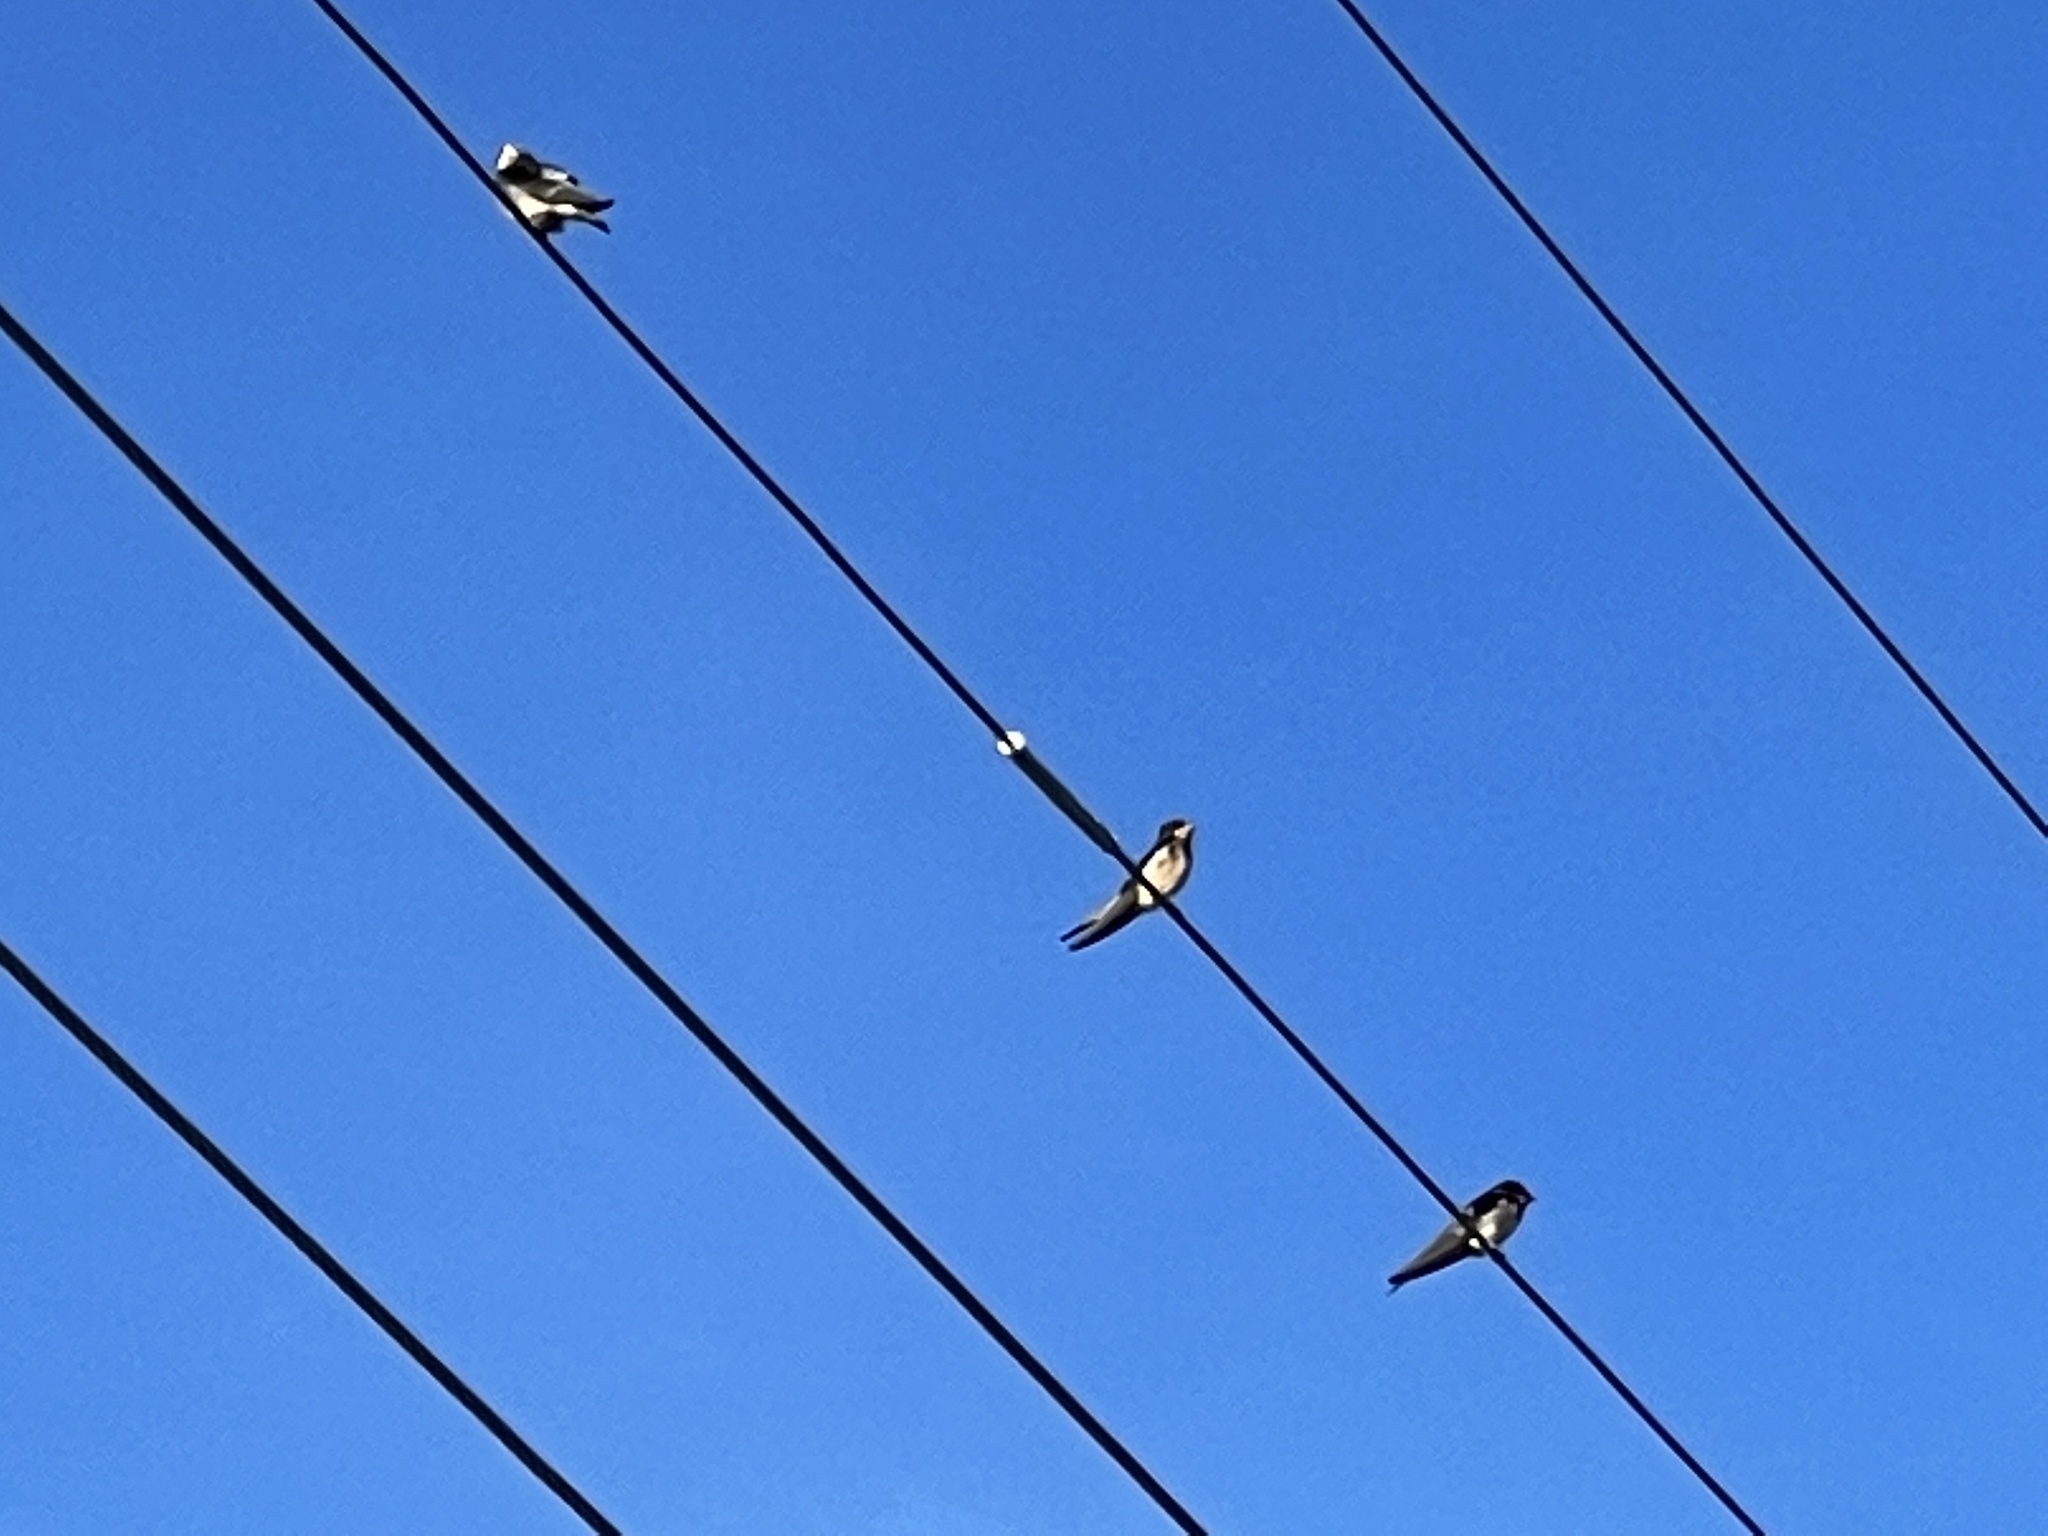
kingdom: Animalia
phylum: Chordata
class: Aves
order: Passeriformes
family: Hirundinidae
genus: Hirundo
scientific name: Hirundo rustica
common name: Barn swallow
